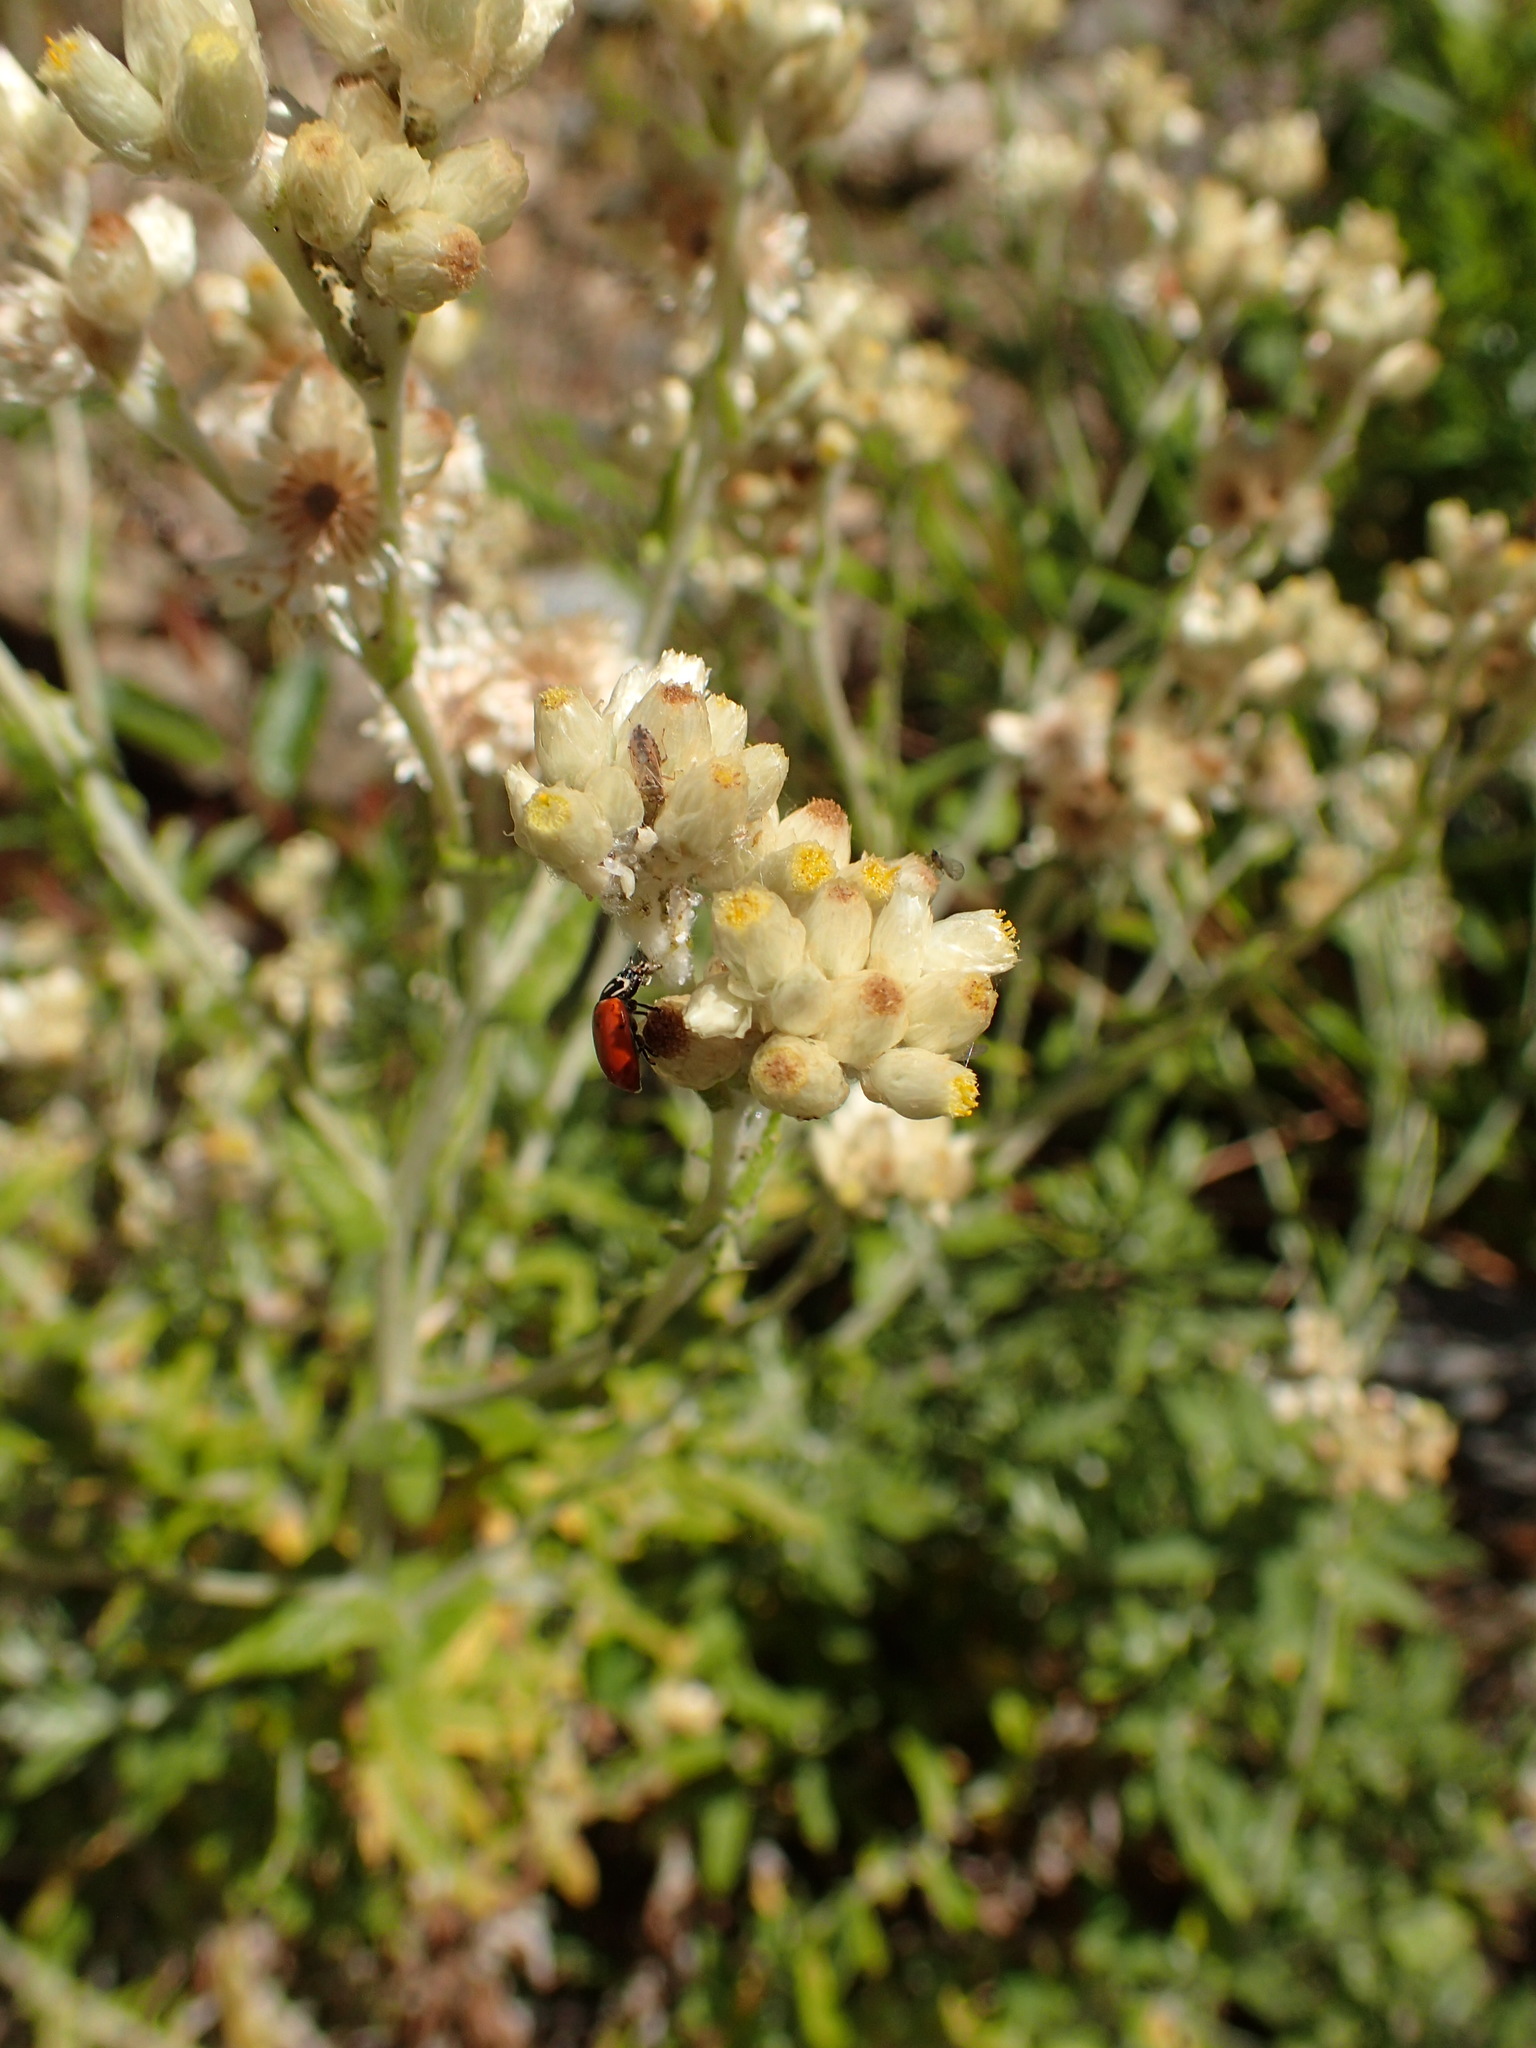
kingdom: Plantae
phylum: Tracheophyta
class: Magnoliopsida
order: Asterales
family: Asteraceae
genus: Pseudognaphalium
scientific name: Pseudognaphalium biolettii
